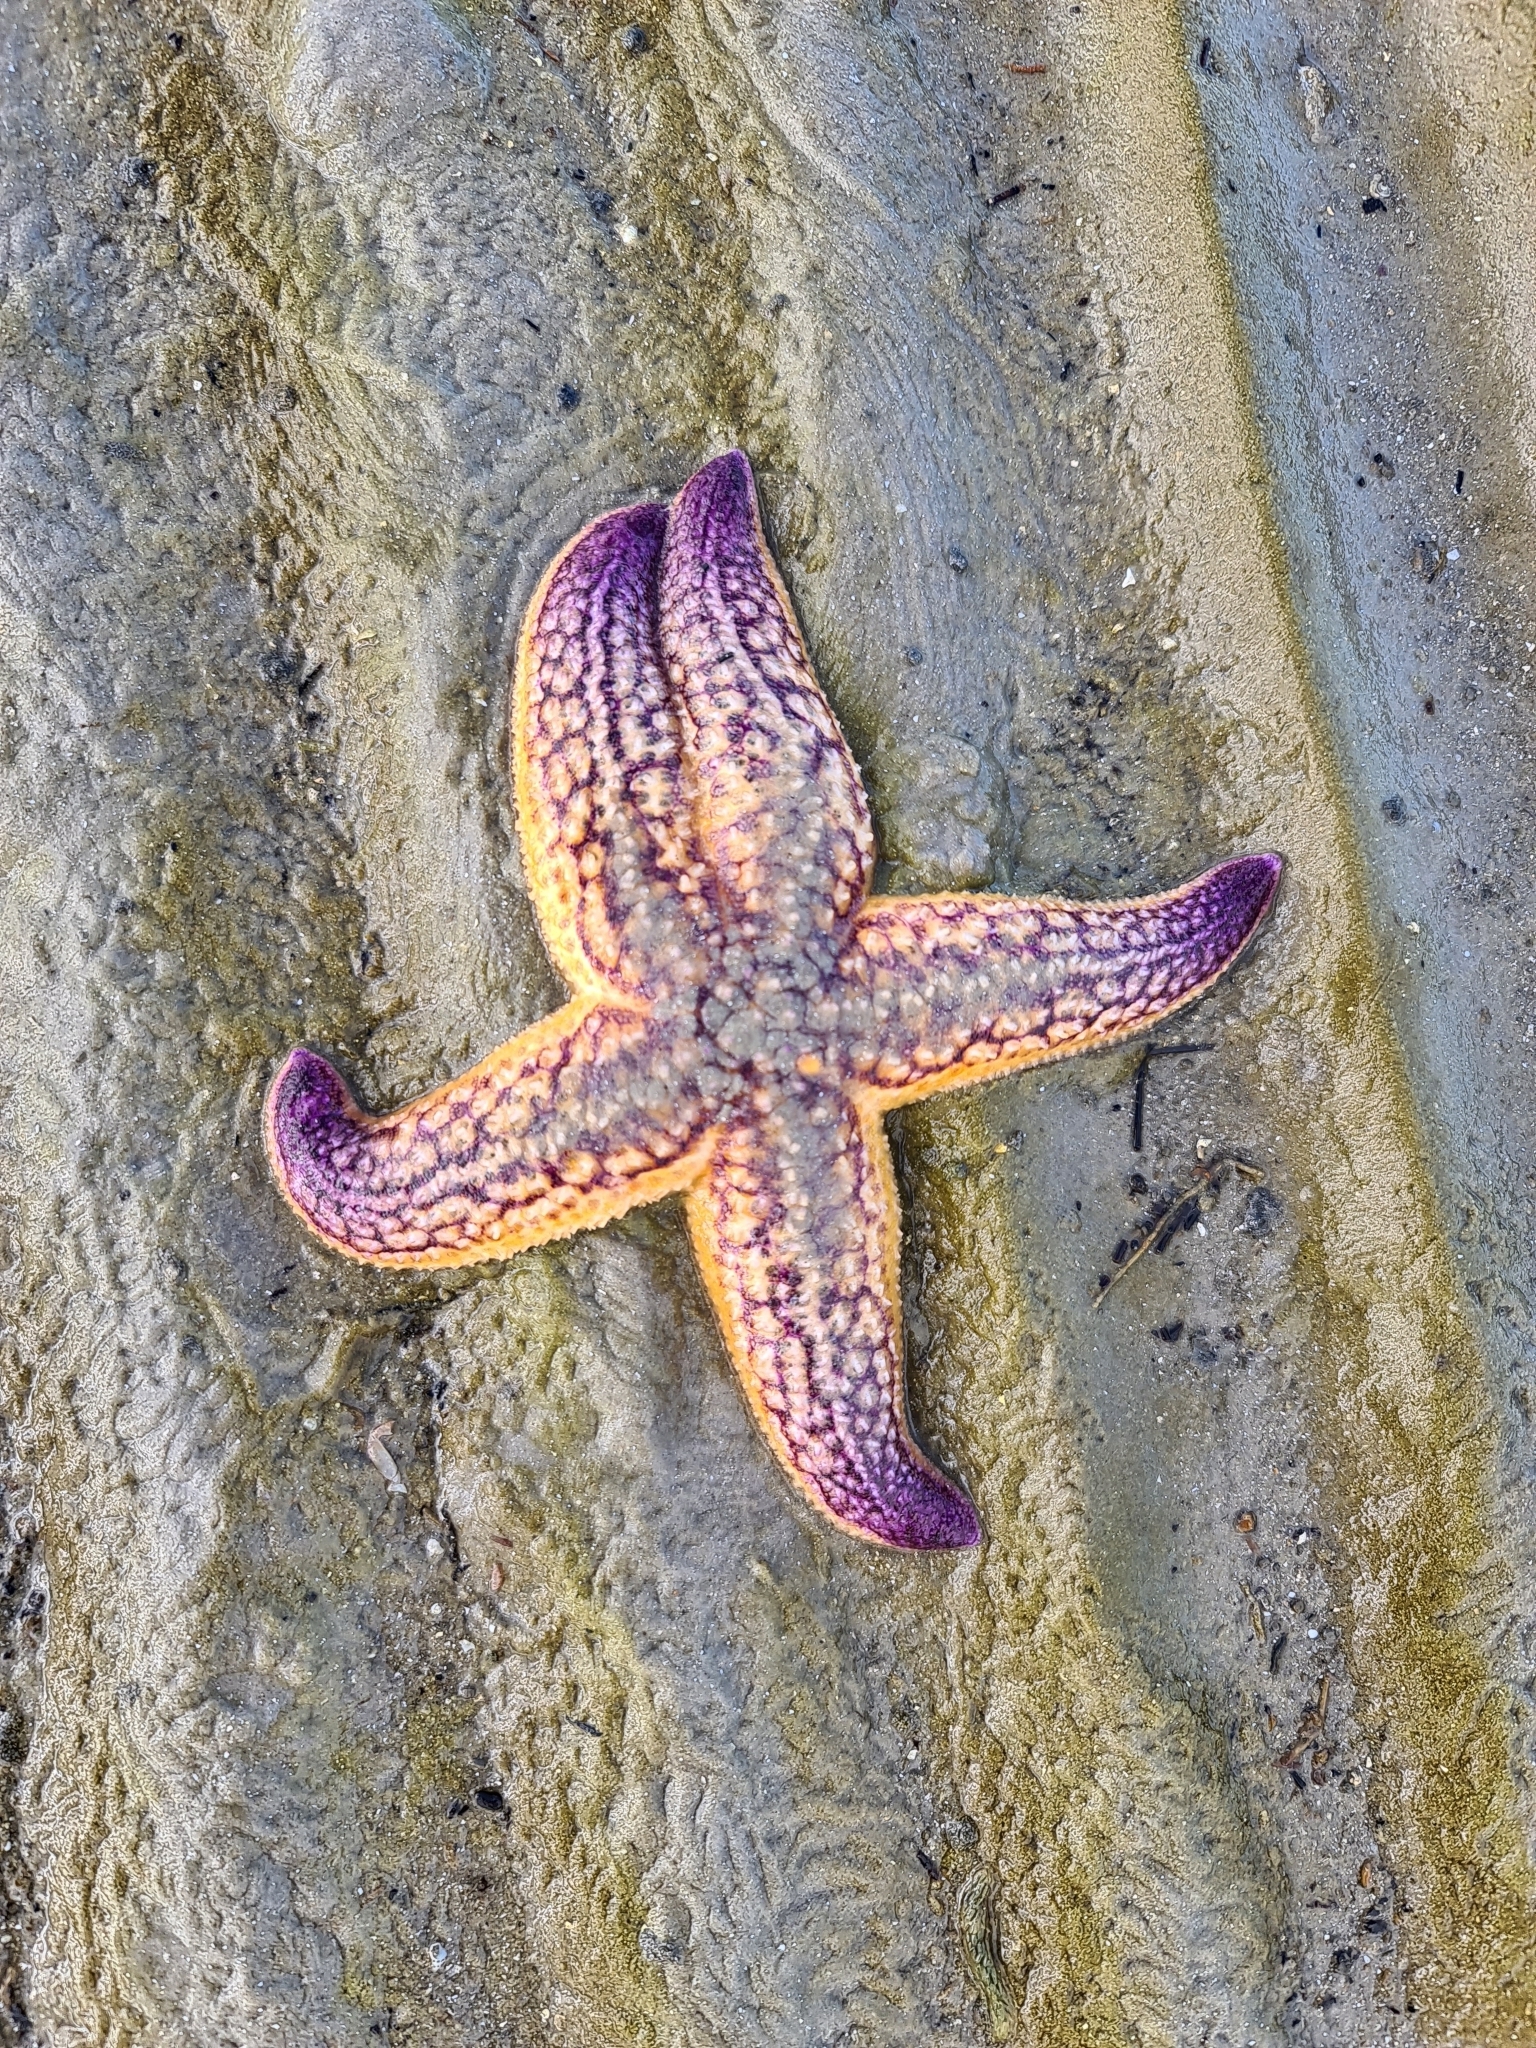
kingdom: Animalia
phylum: Echinodermata
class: Asteroidea
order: Forcipulatida
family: Asteriidae
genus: Asterias
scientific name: Asterias amurensis
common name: Flat-bottomed star
